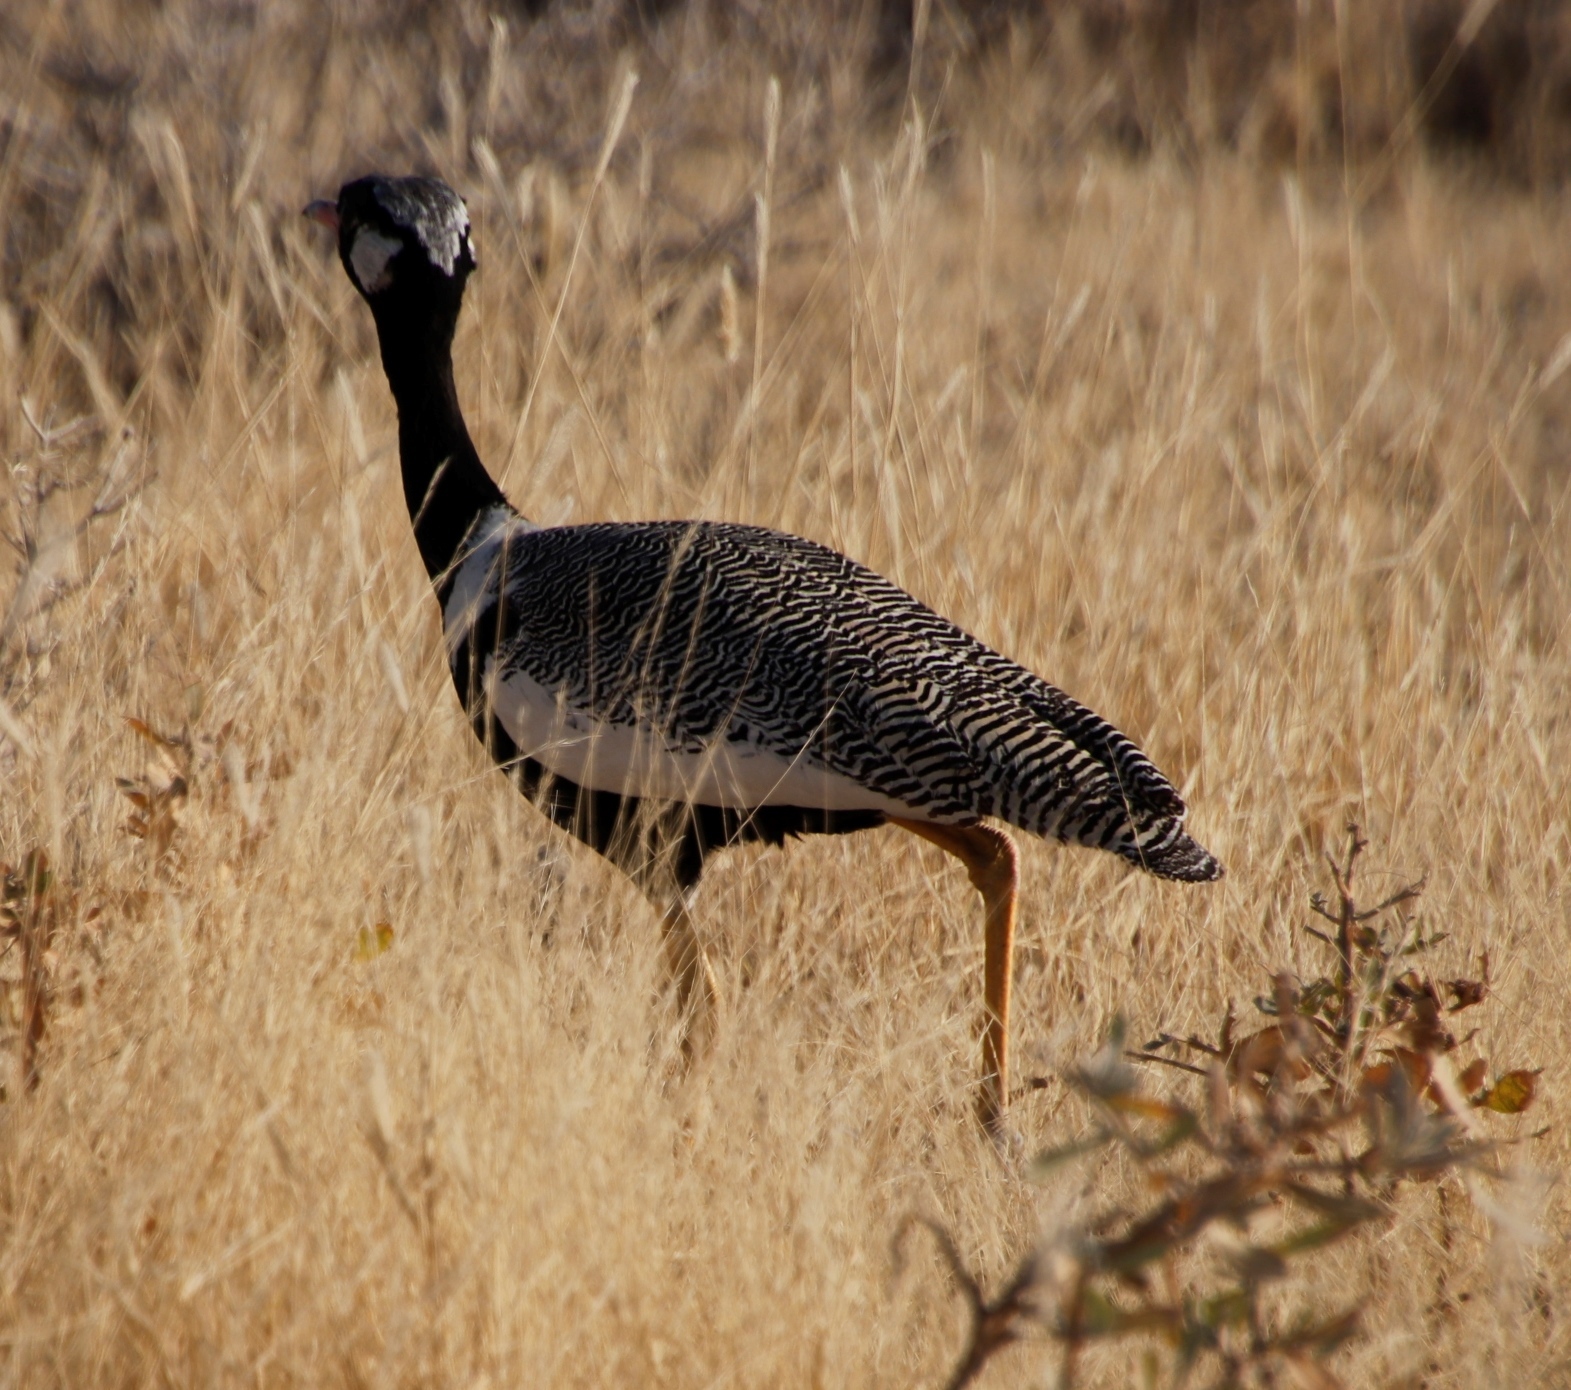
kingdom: Animalia
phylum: Chordata
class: Aves
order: Otidiformes
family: Otididae
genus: Afrotis
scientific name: Afrotis afraoides
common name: Northern black korhaan
